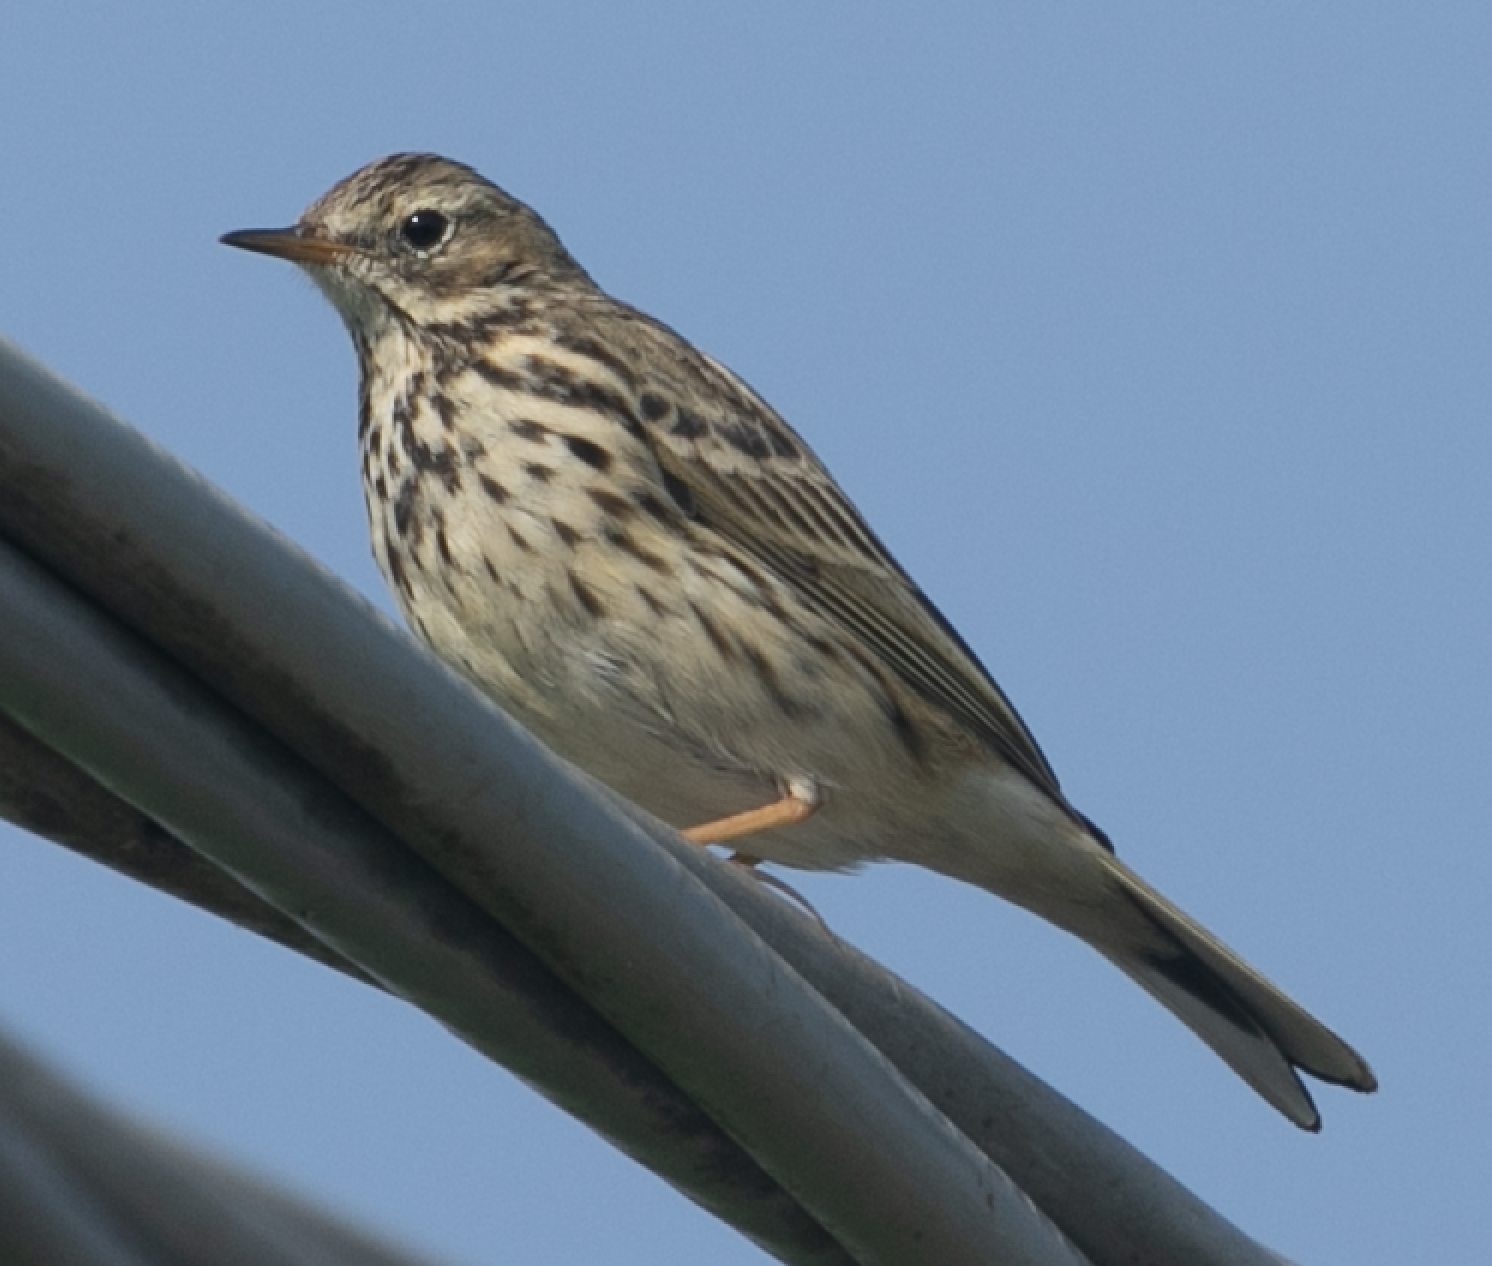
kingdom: Animalia
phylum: Chordata
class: Aves
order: Passeriformes
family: Motacillidae
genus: Anthus
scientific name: Anthus pratensis
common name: Meadow pipit
